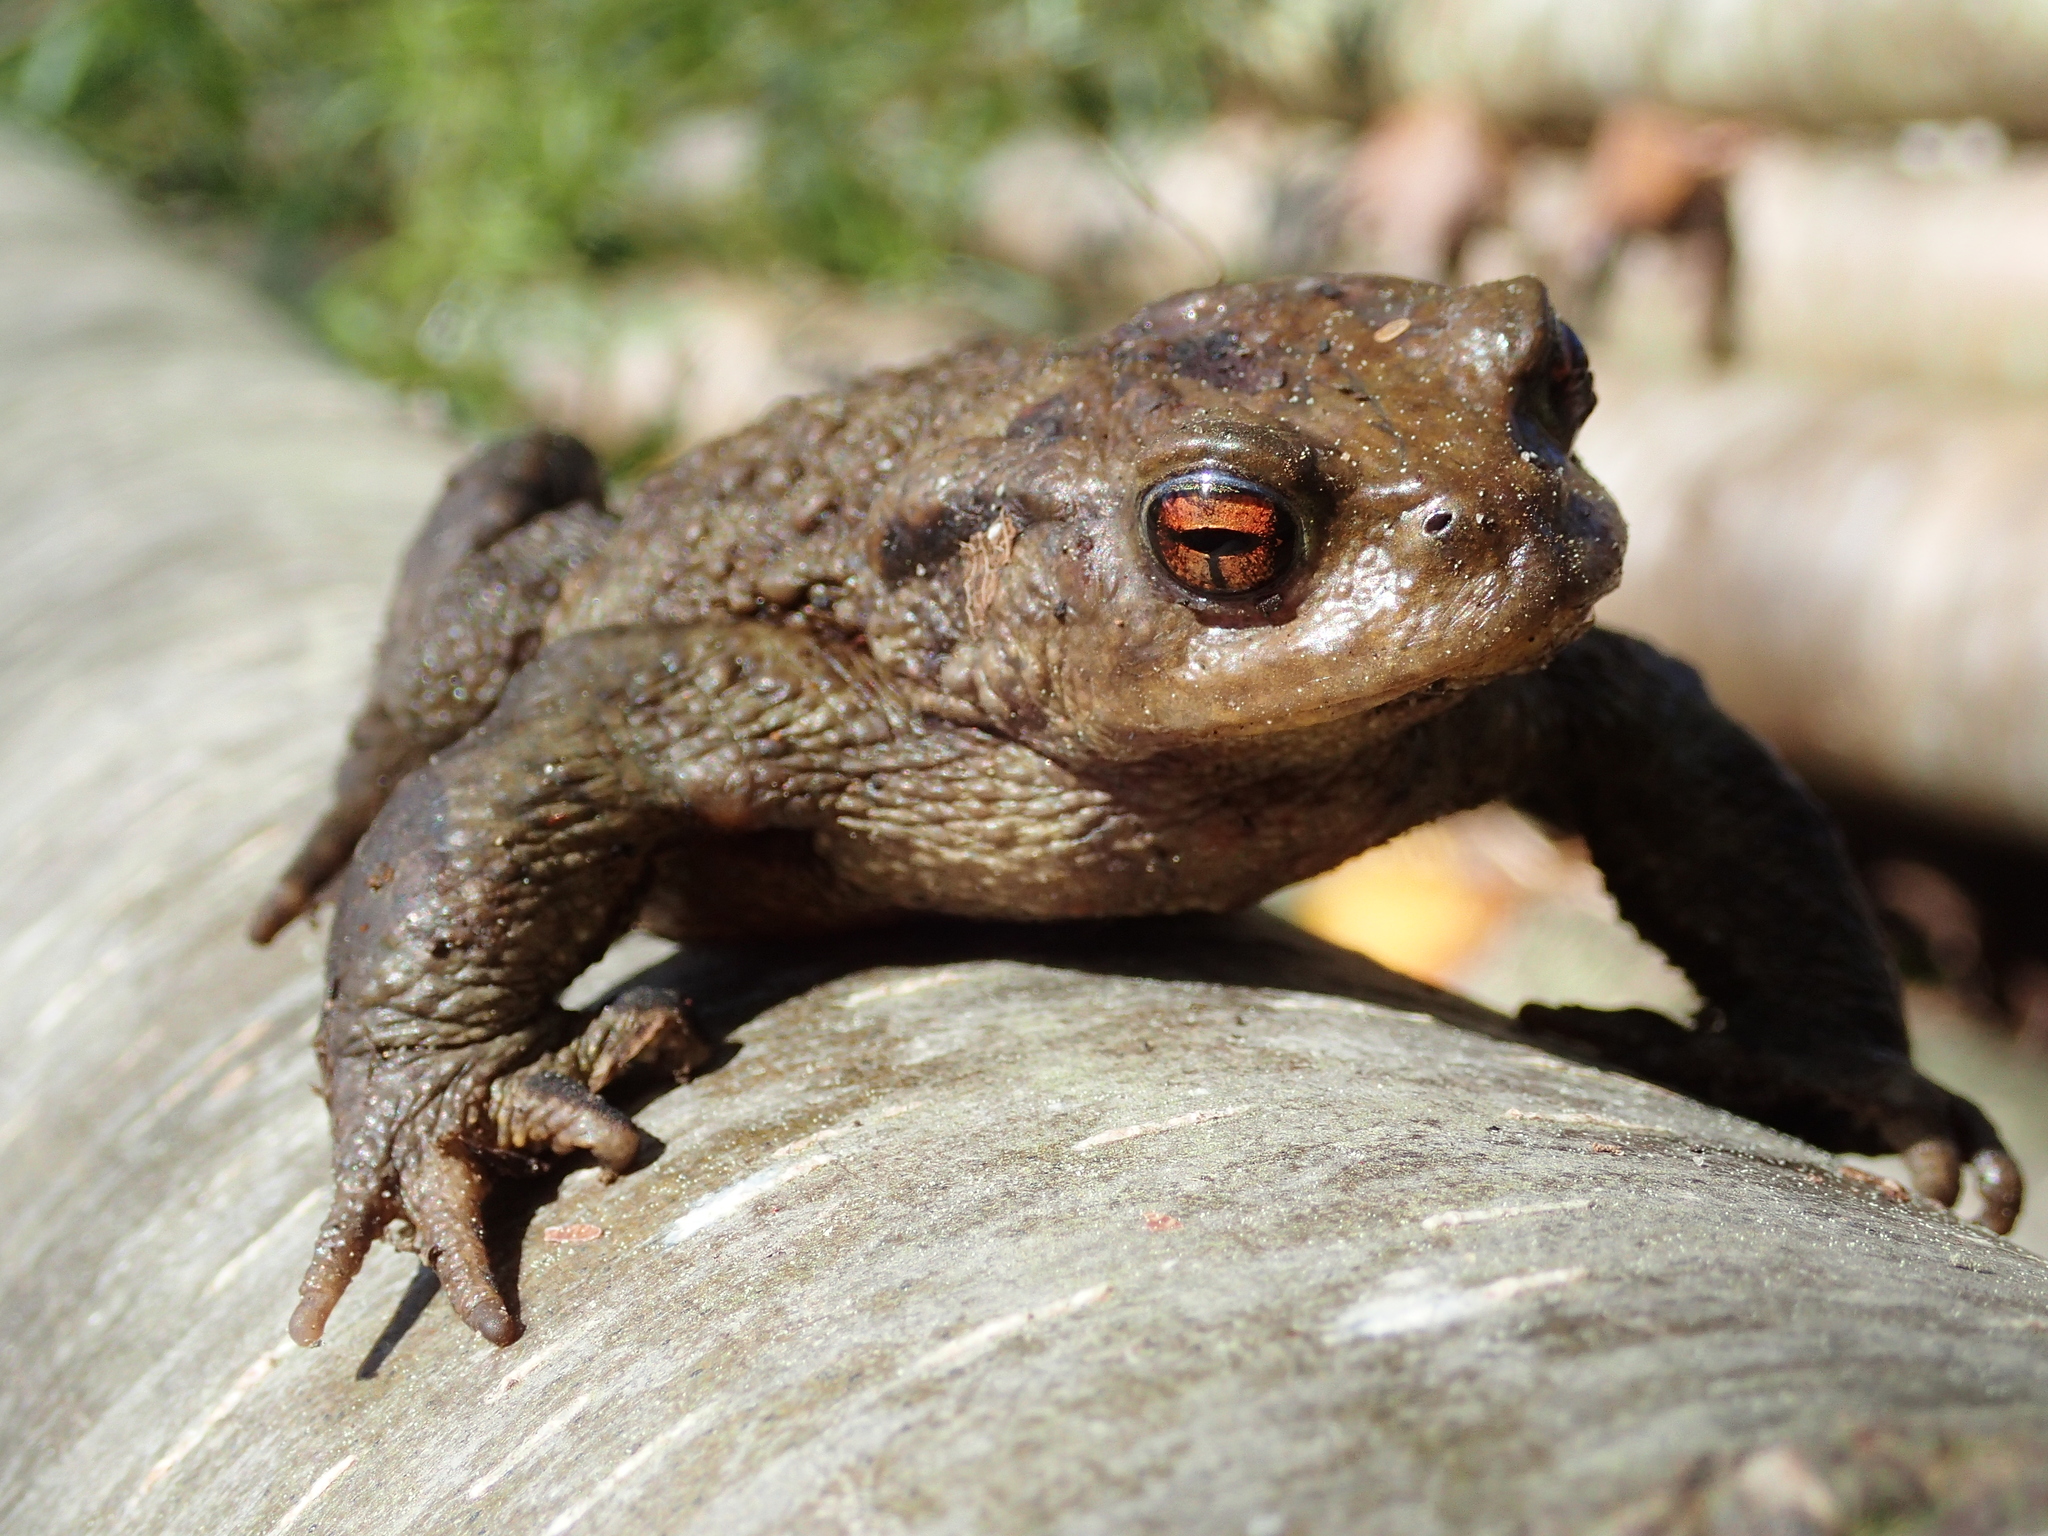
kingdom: Animalia
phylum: Chordata
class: Amphibia
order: Anura
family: Bufonidae
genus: Bufo
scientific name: Bufo spinosus
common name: Western common toad
